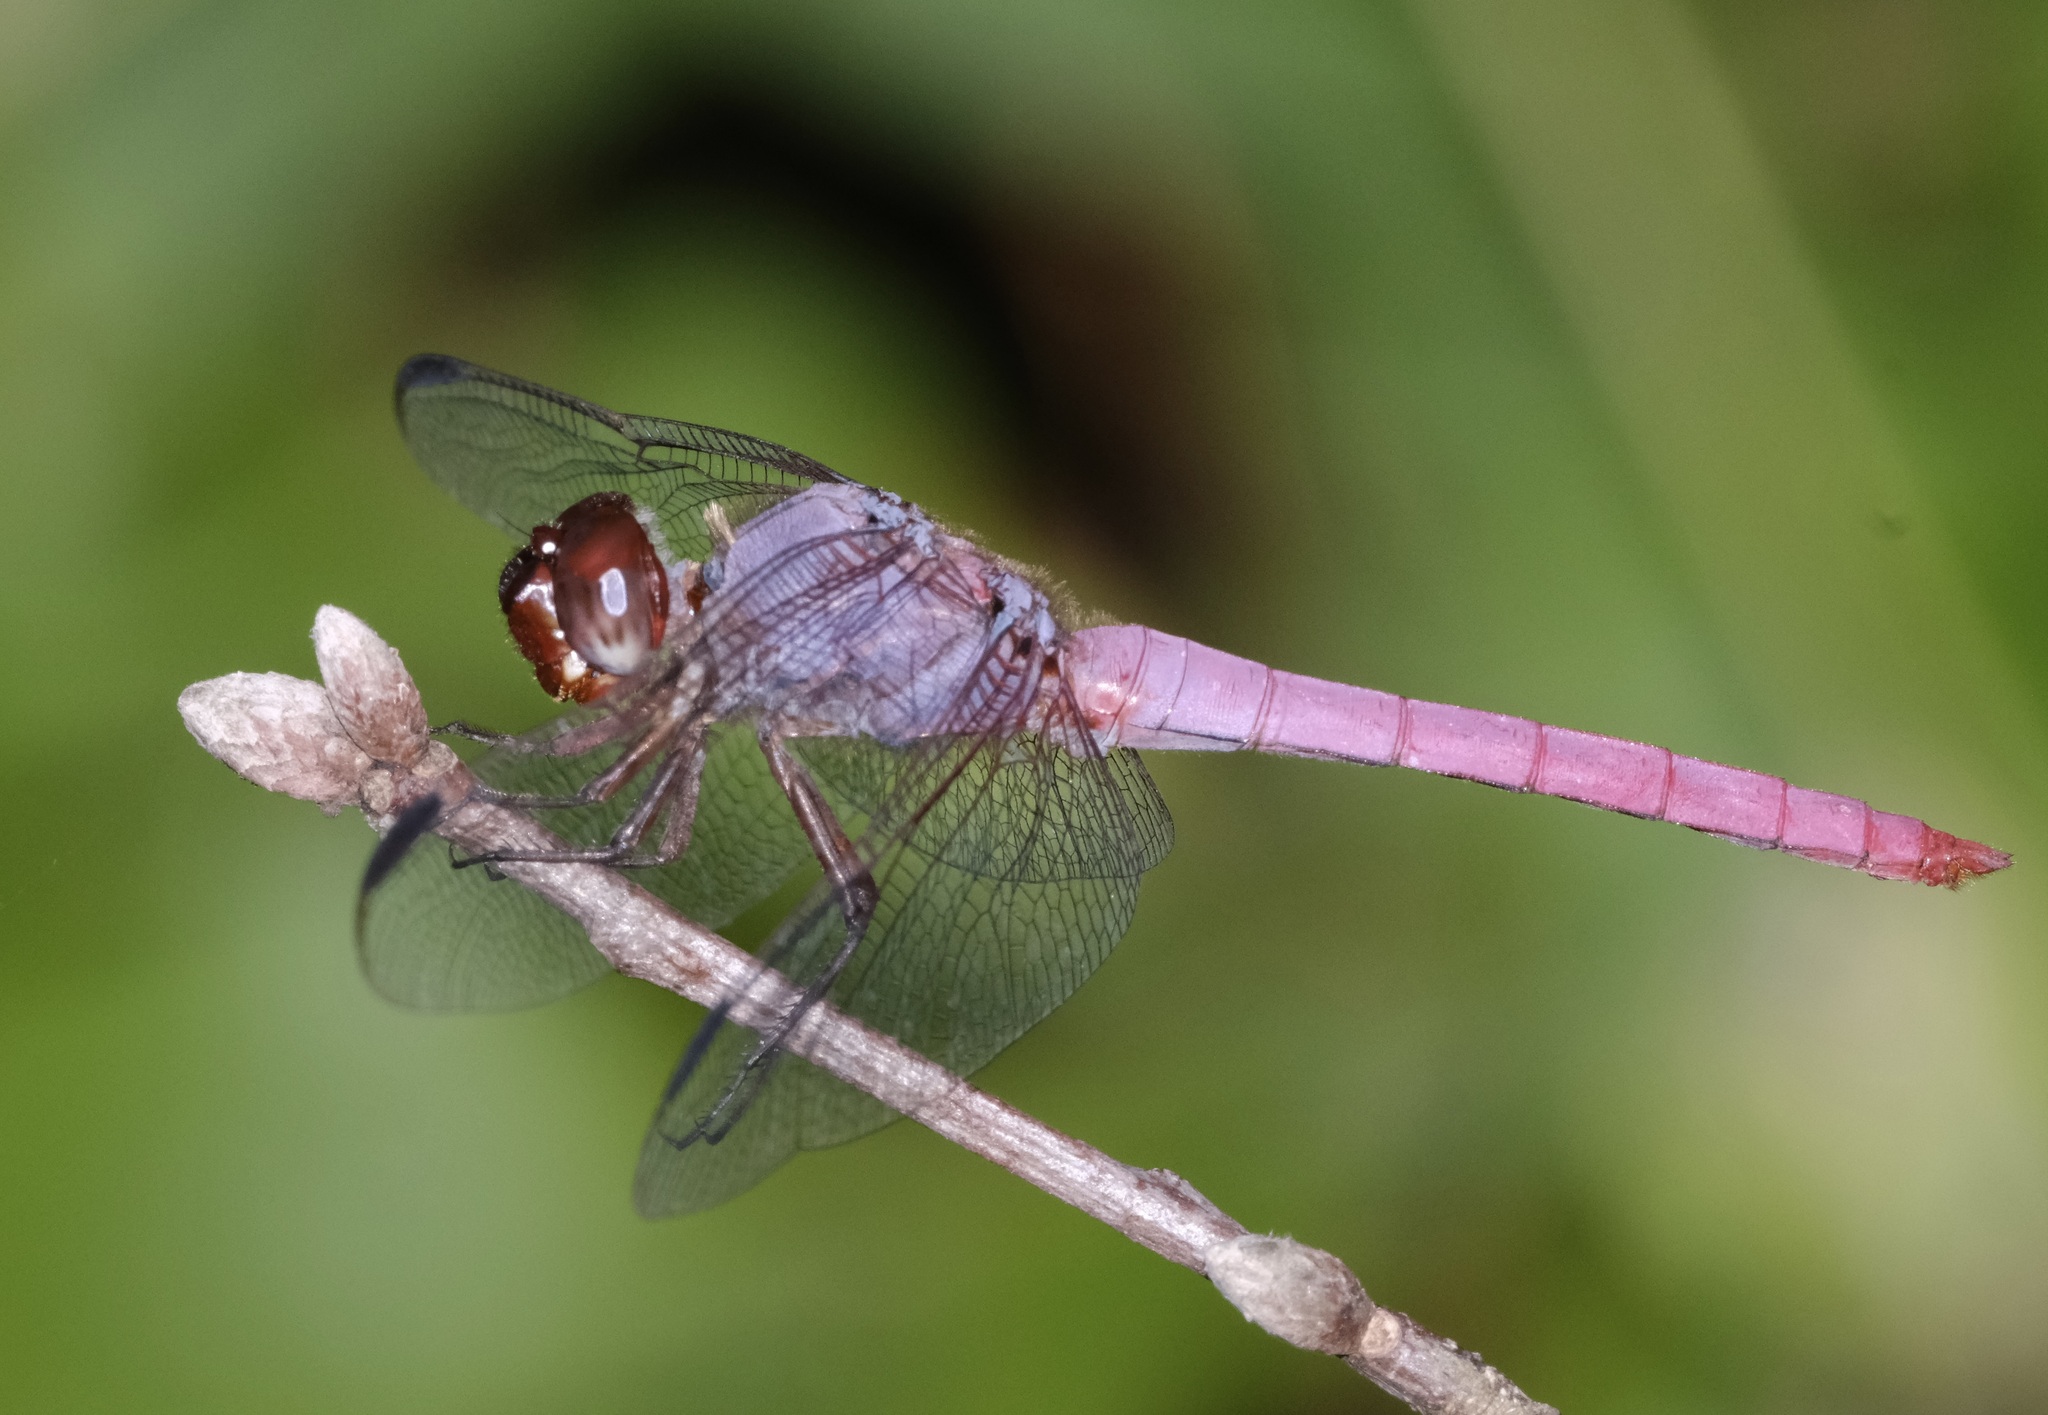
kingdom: Animalia
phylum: Arthropoda
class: Insecta
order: Odonata
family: Libellulidae
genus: Orthemis
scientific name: Orthemis ferruginea
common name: Roseate skimmer
